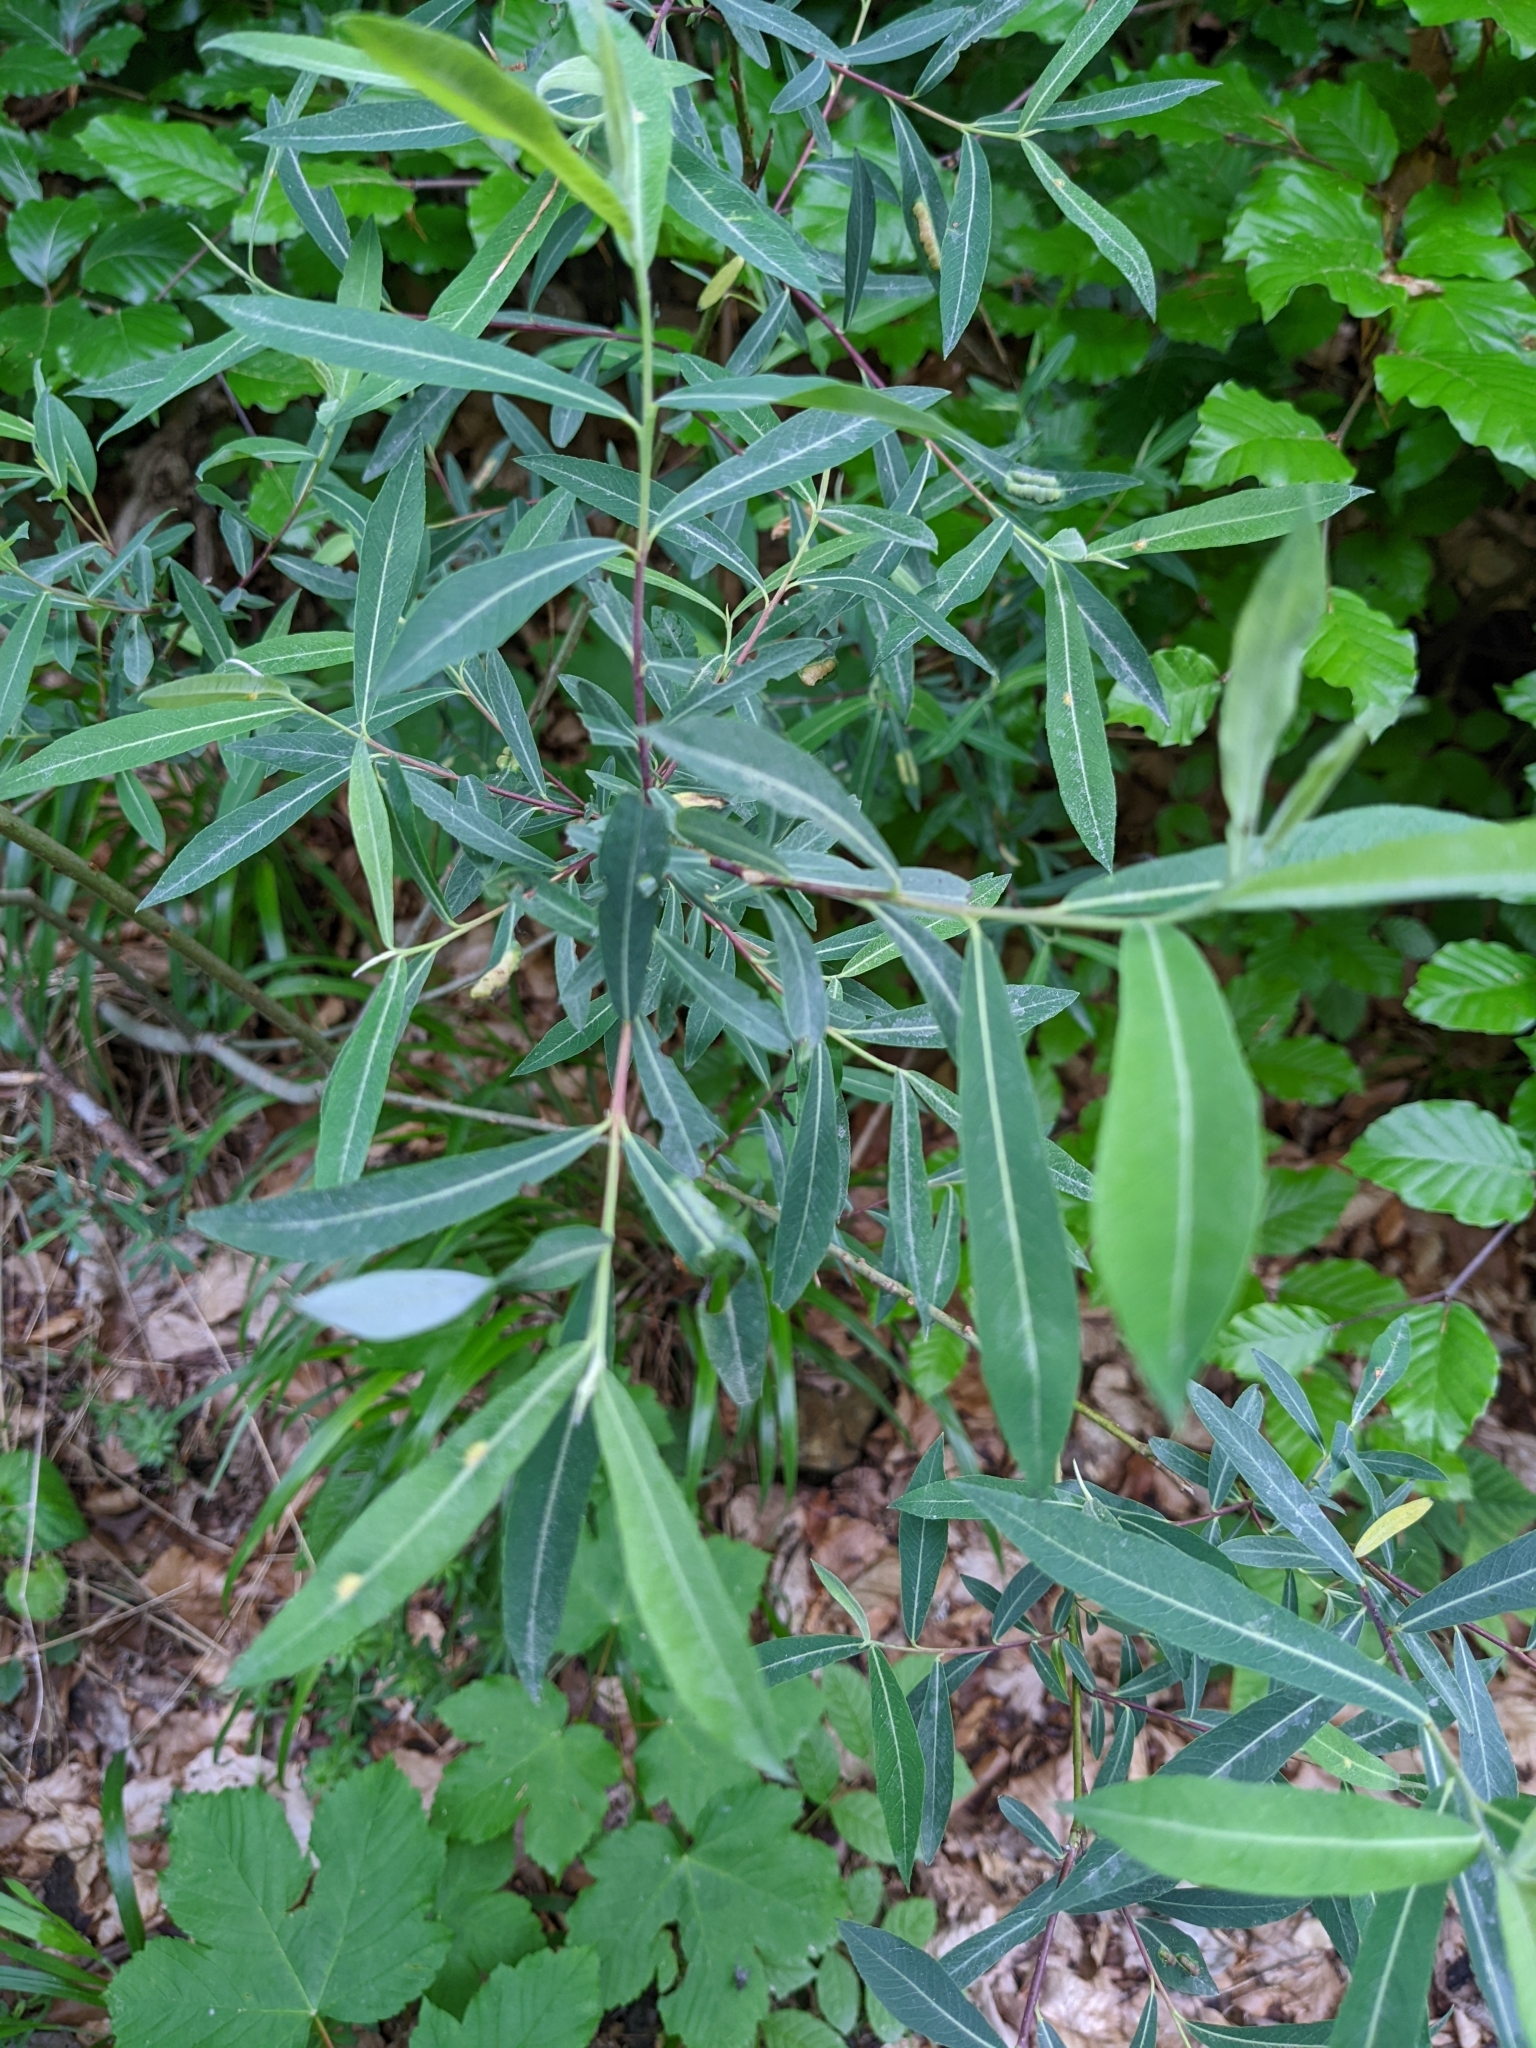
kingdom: Plantae
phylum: Tracheophyta
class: Magnoliopsida
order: Malpighiales
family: Salicaceae
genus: Salix
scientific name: Salix purpurea
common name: Purple willow
